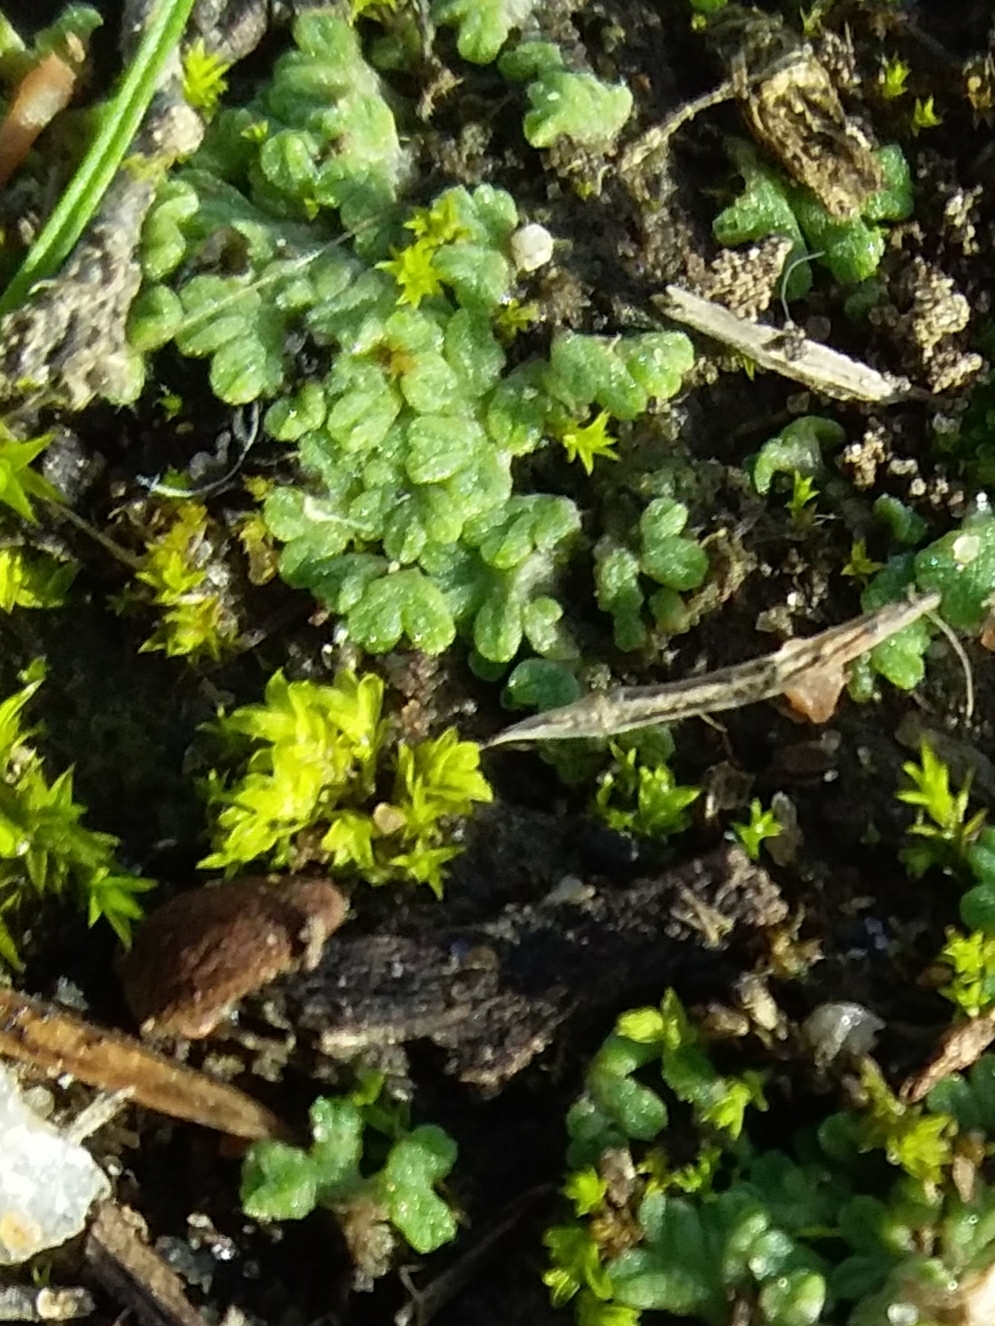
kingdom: Plantae
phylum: Marchantiophyta
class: Marchantiopsida
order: Marchantiales
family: Ricciaceae
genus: Riccia
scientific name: Riccia subbifurca
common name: Least crystalwort
